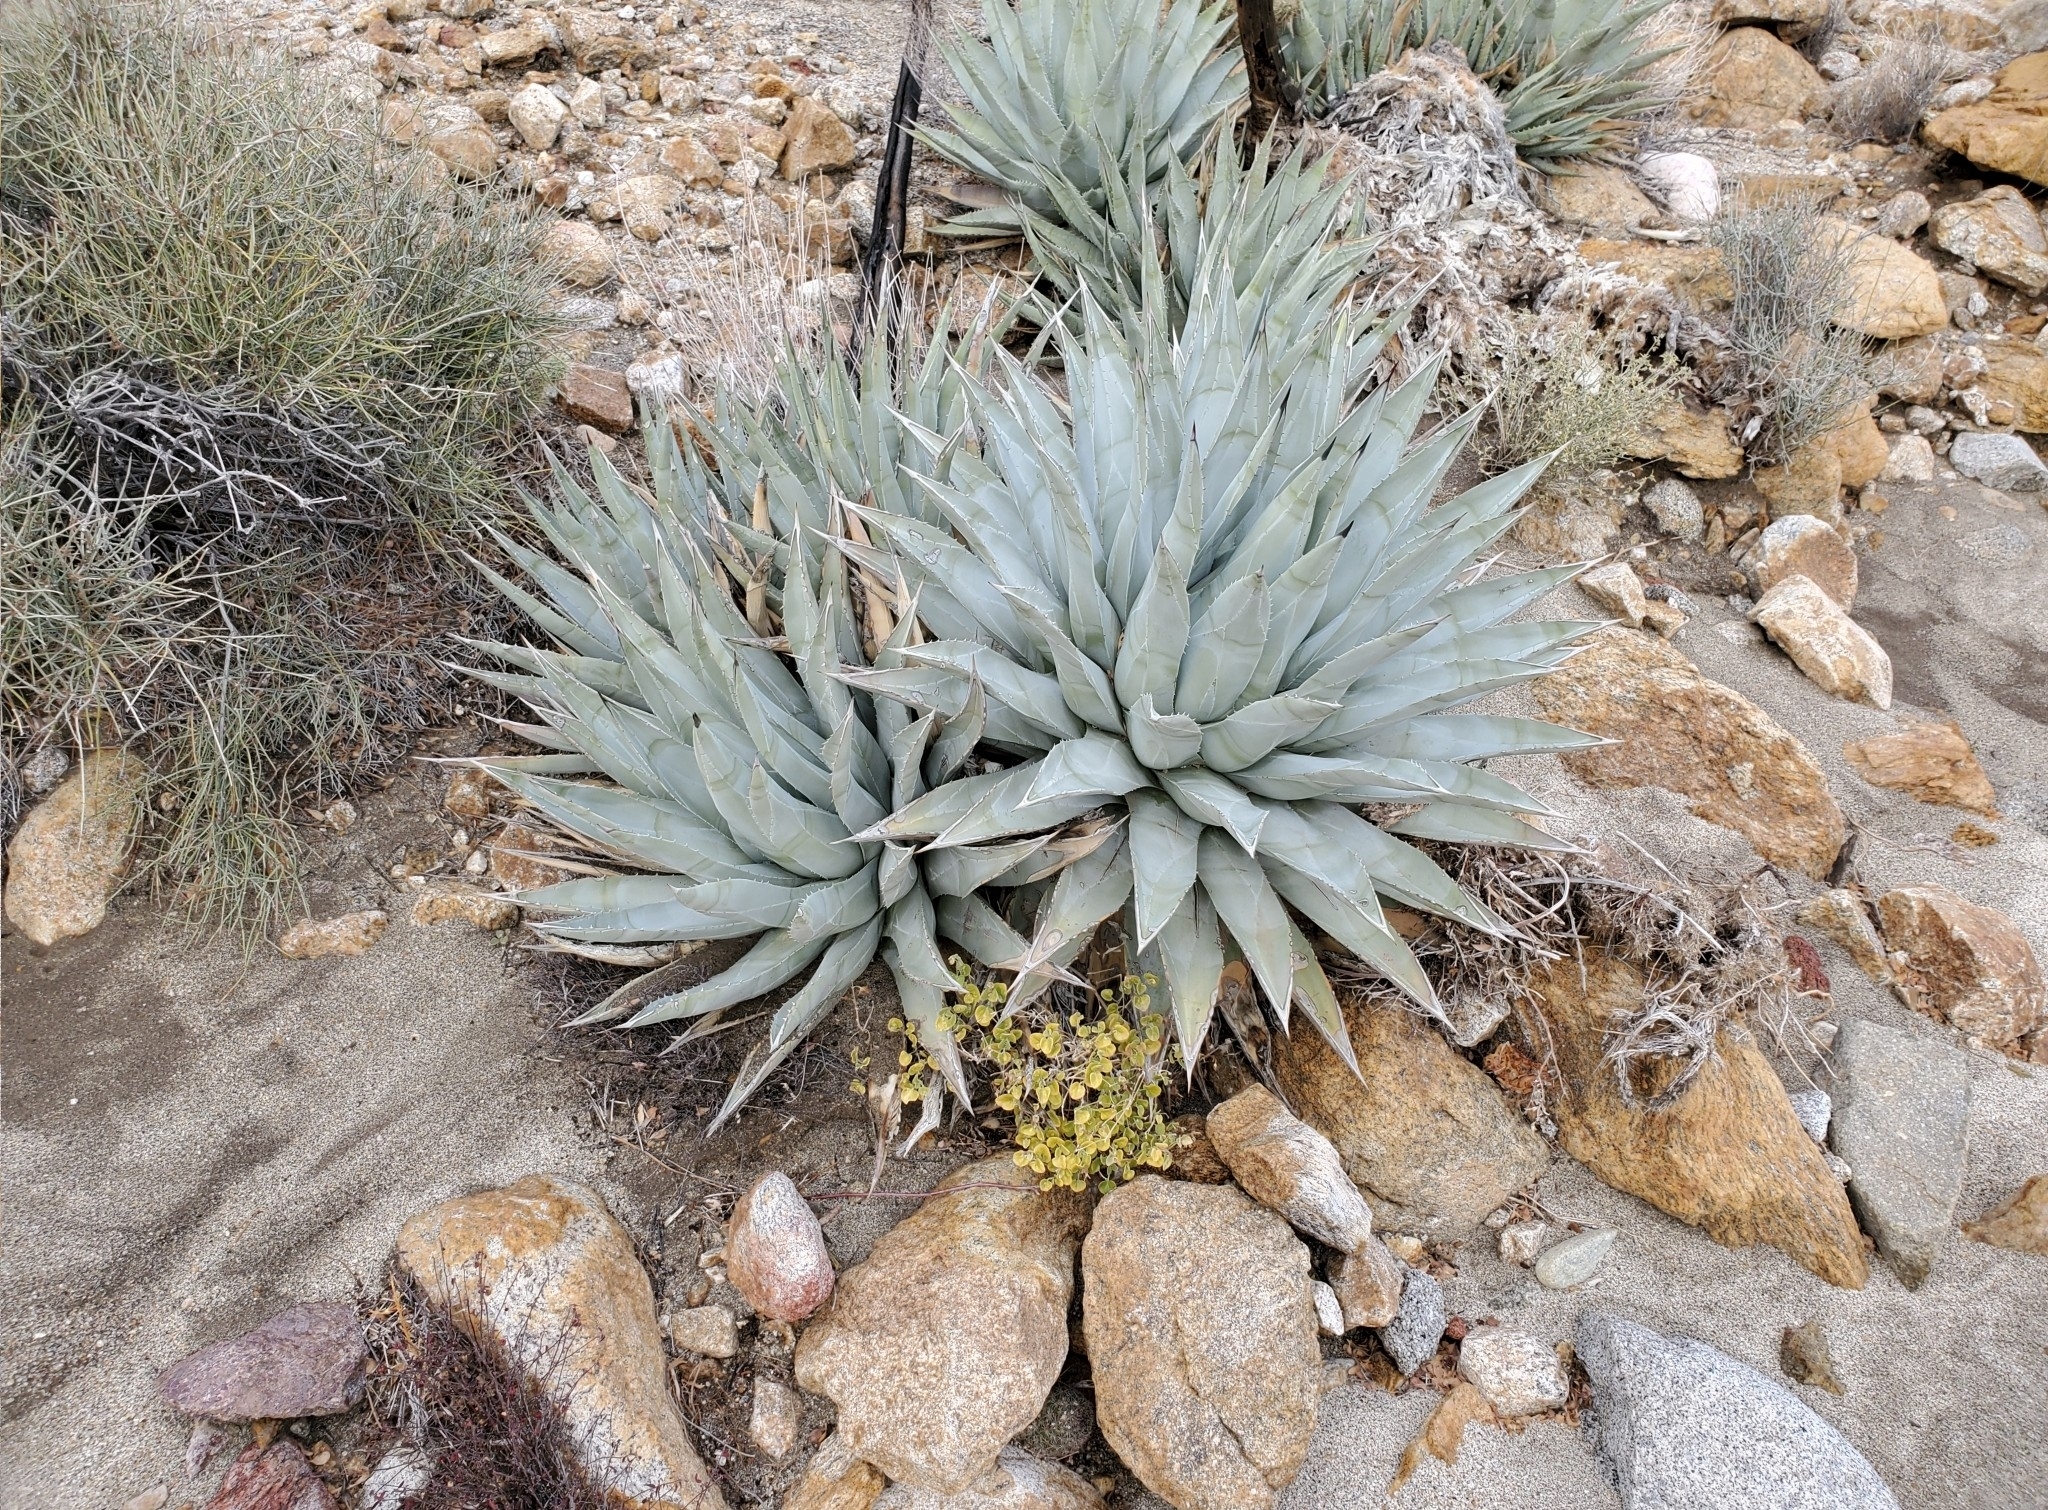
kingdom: Plantae
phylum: Tracheophyta
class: Liliopsida
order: Asparagales
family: Asparagaceae
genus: Agave
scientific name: Agave deserti
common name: Desert agave
